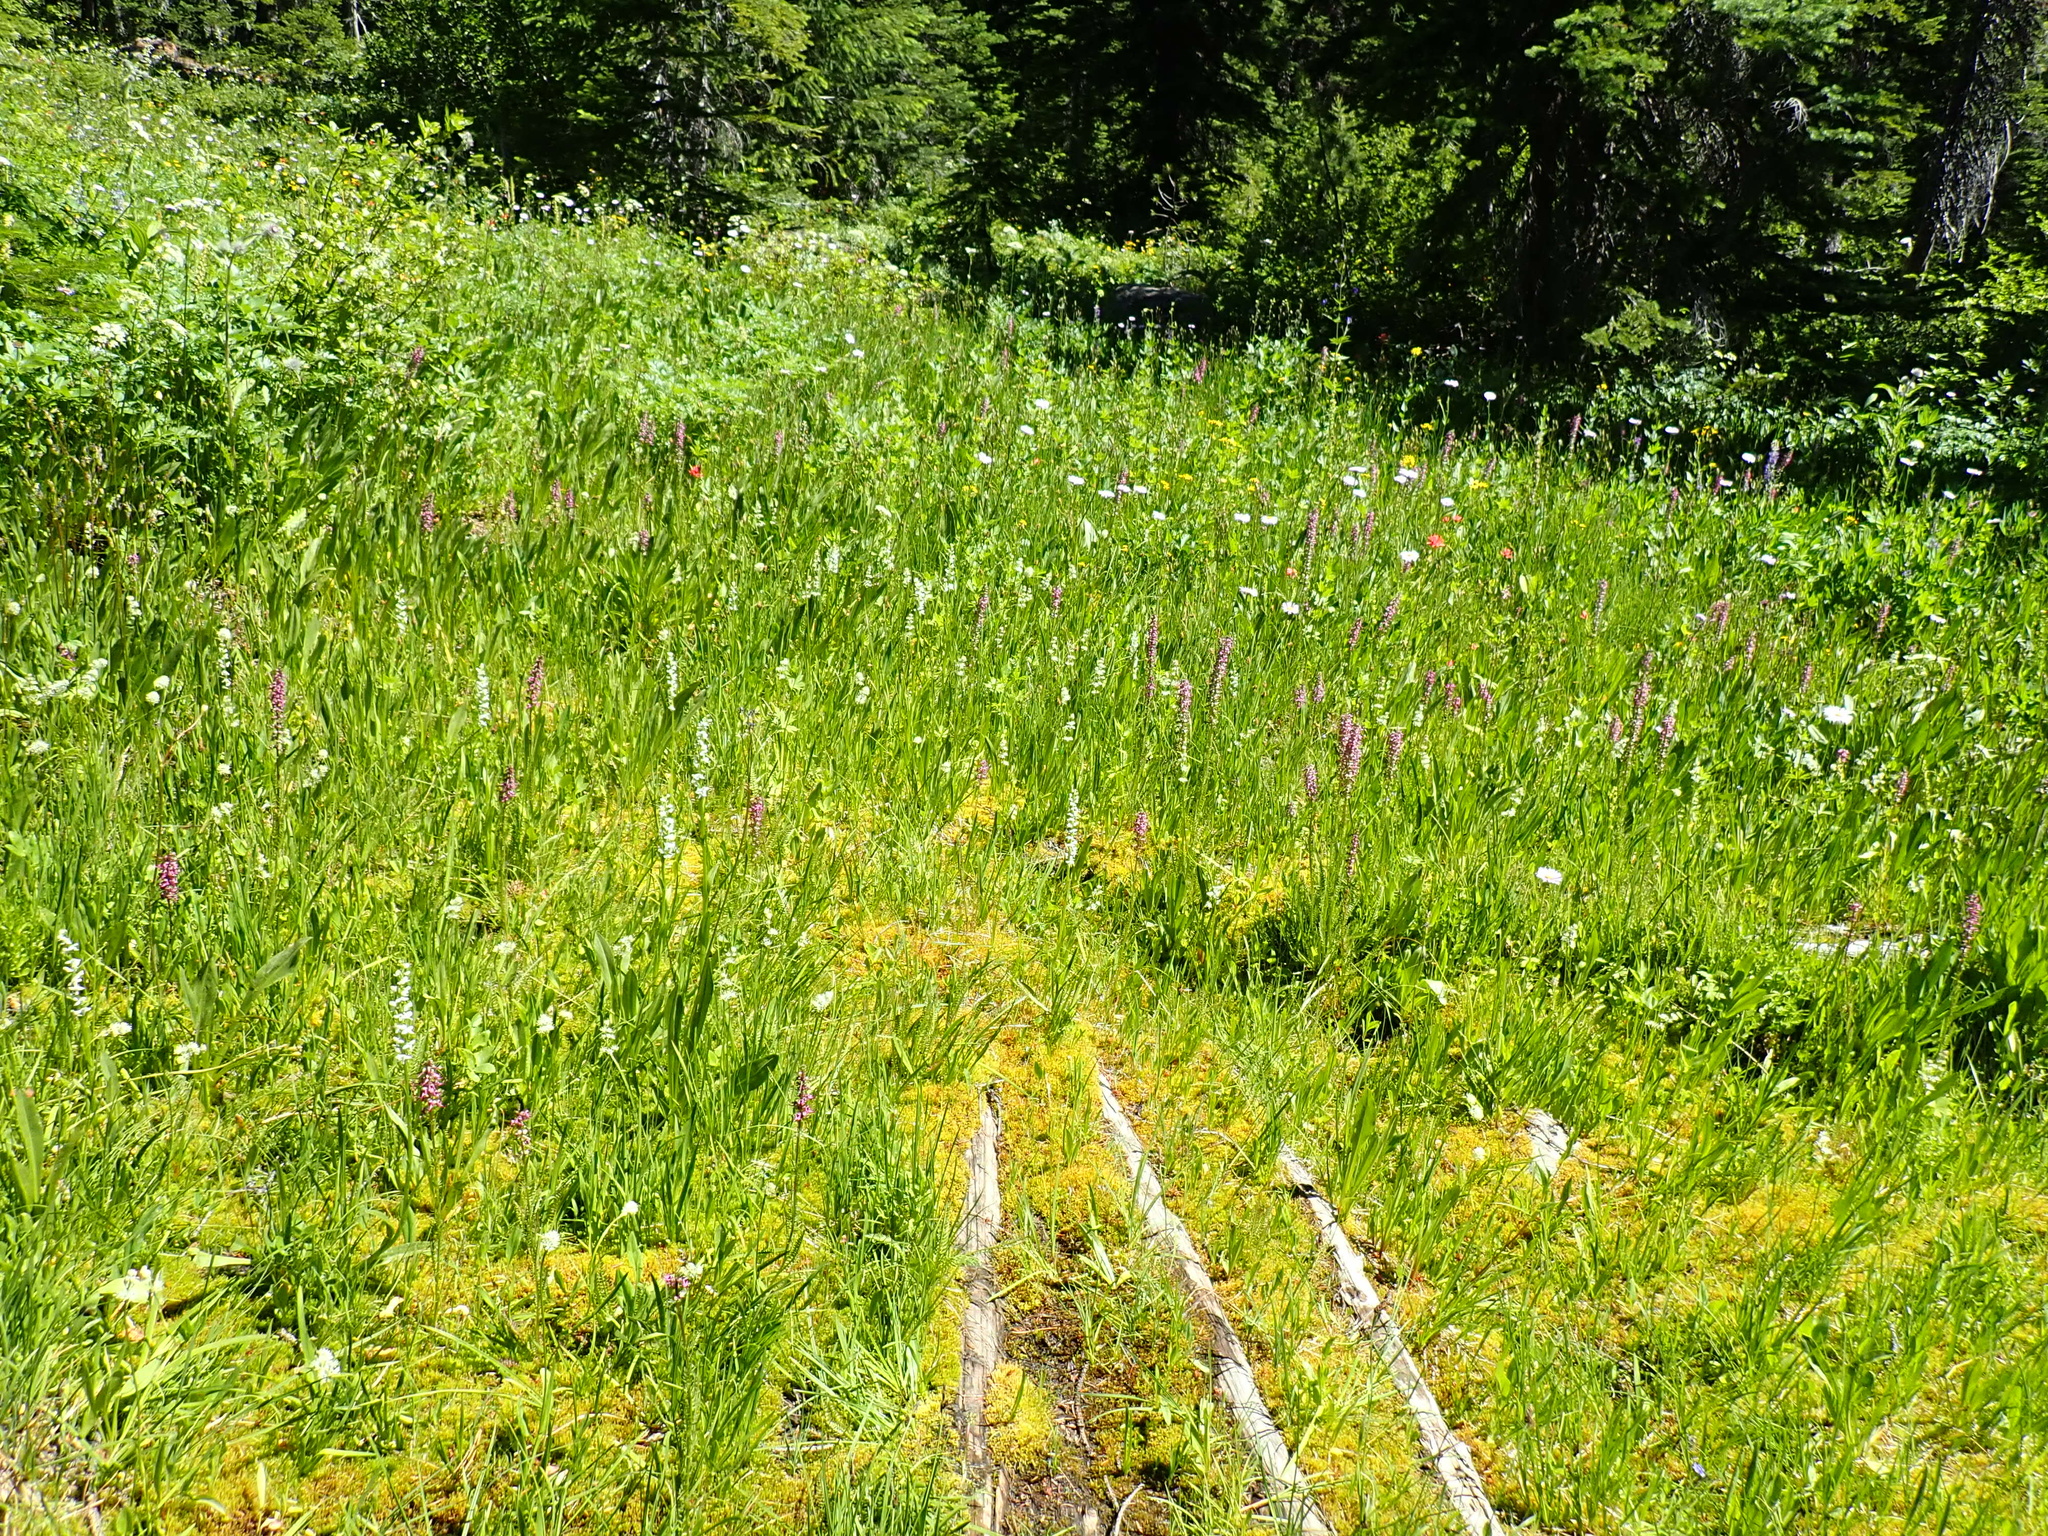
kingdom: Plantae
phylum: Tracheophyta
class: Magnoliopsida
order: Lamiales
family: Orobanchaceae
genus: Pedicularis
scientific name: Pedicularis groenlandica
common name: Elephant's-head
